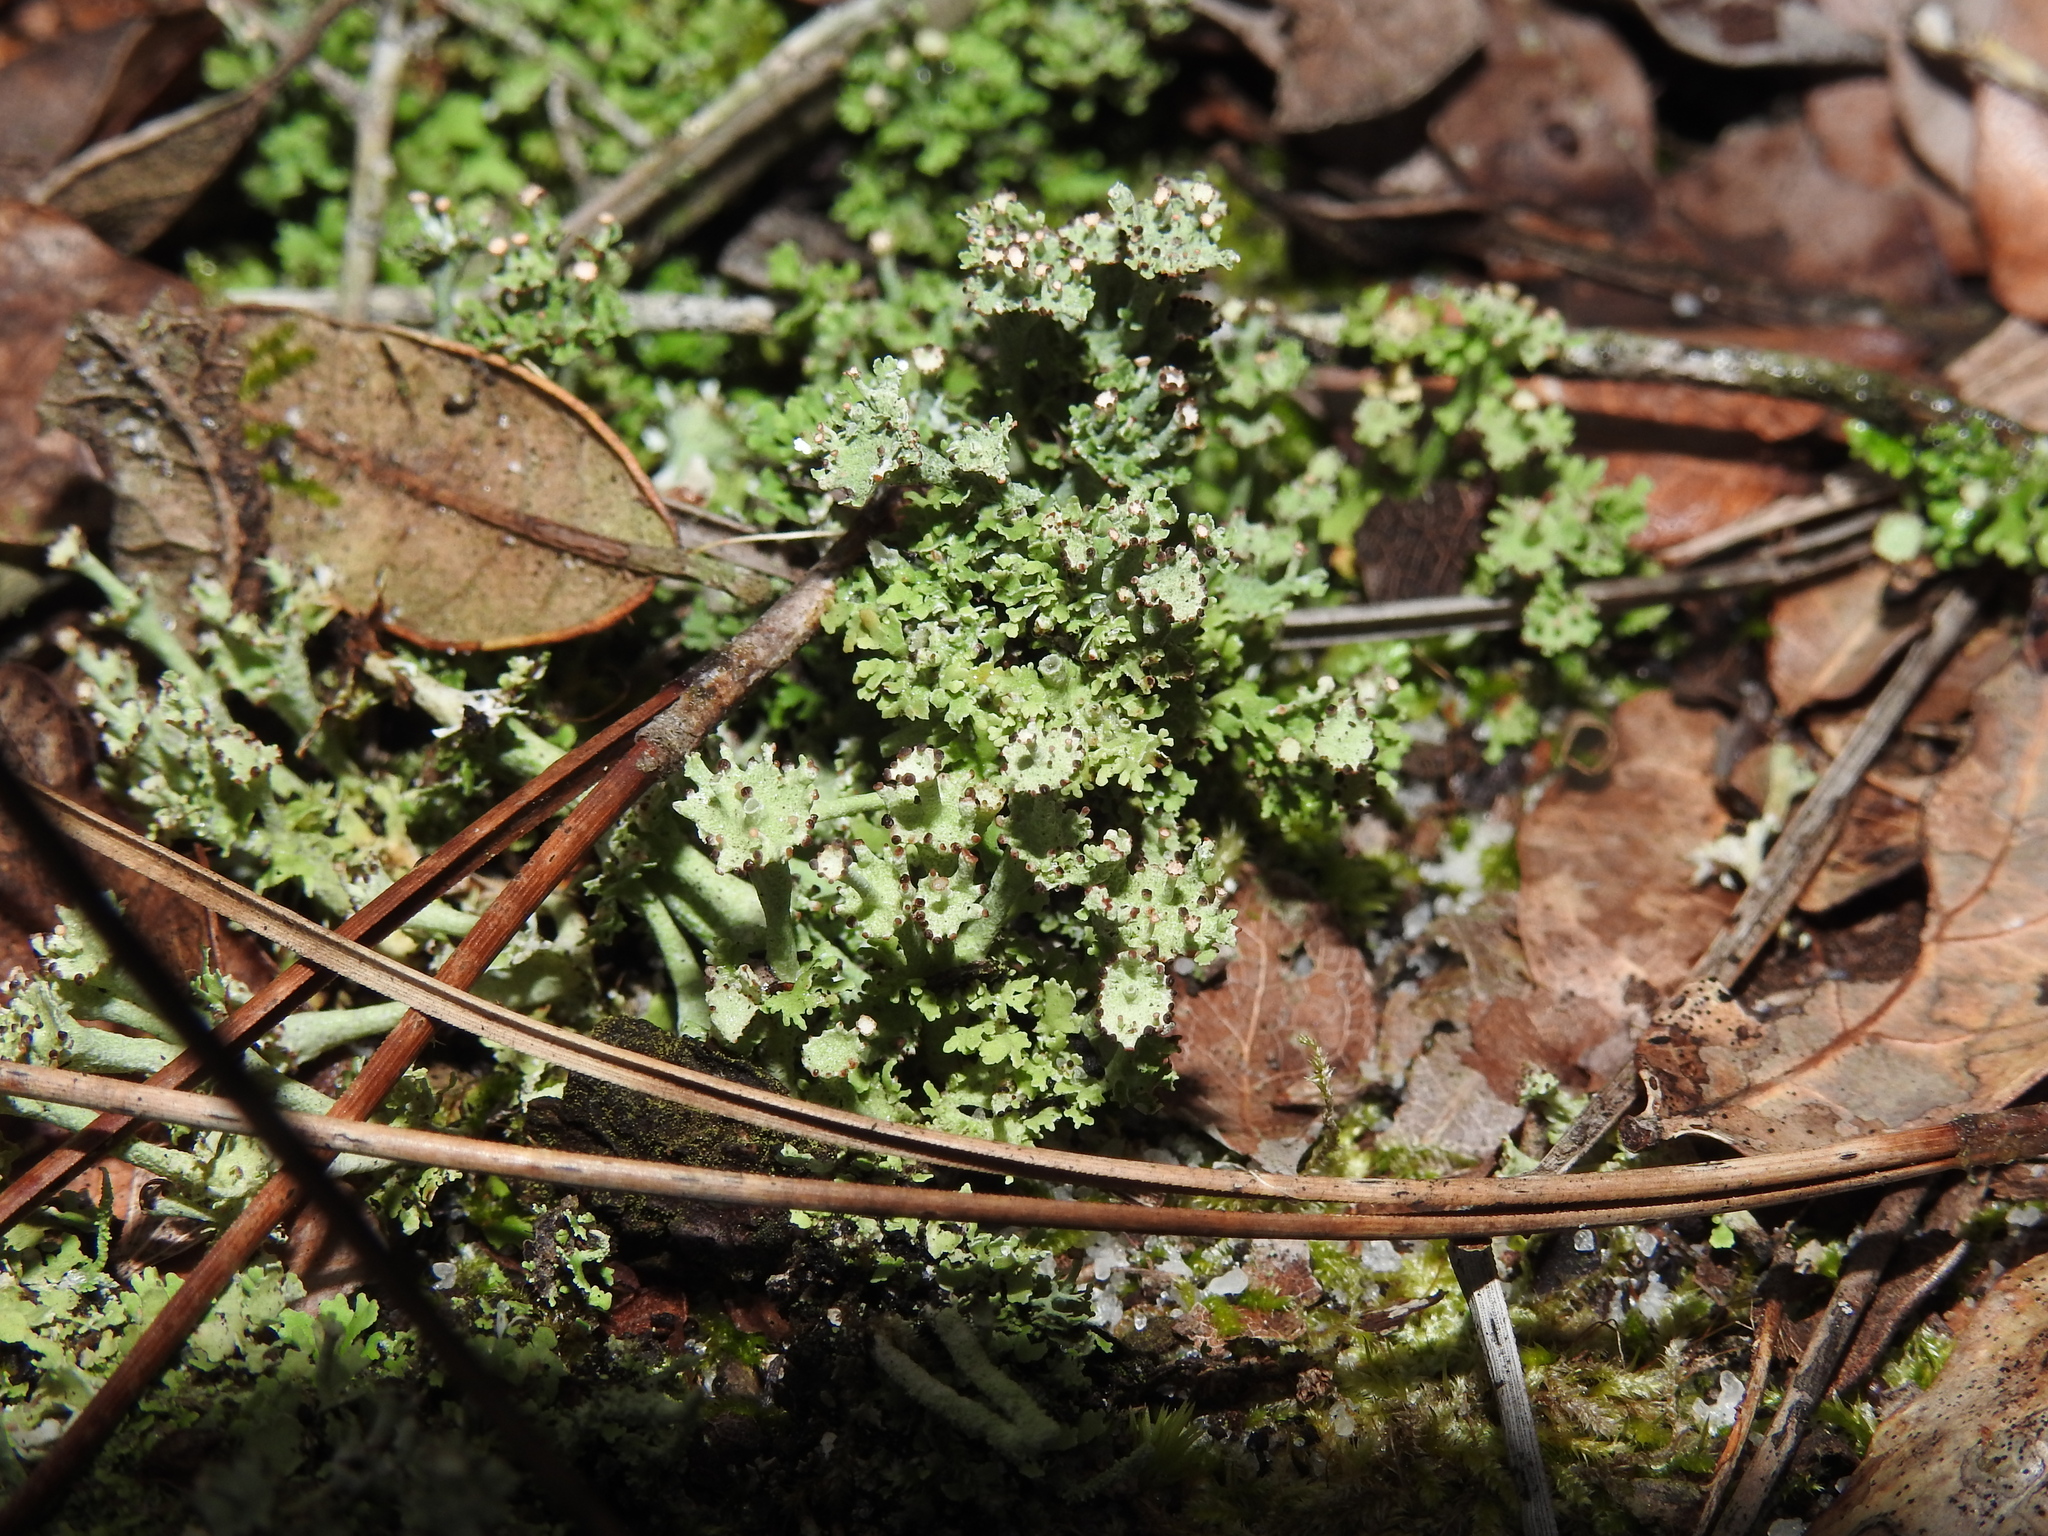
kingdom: Fungi
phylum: Ascomycota
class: Lecanoromycetes
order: Lecanorales
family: Cladoniaceae
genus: Cladonia
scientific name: Cladonia rappii
